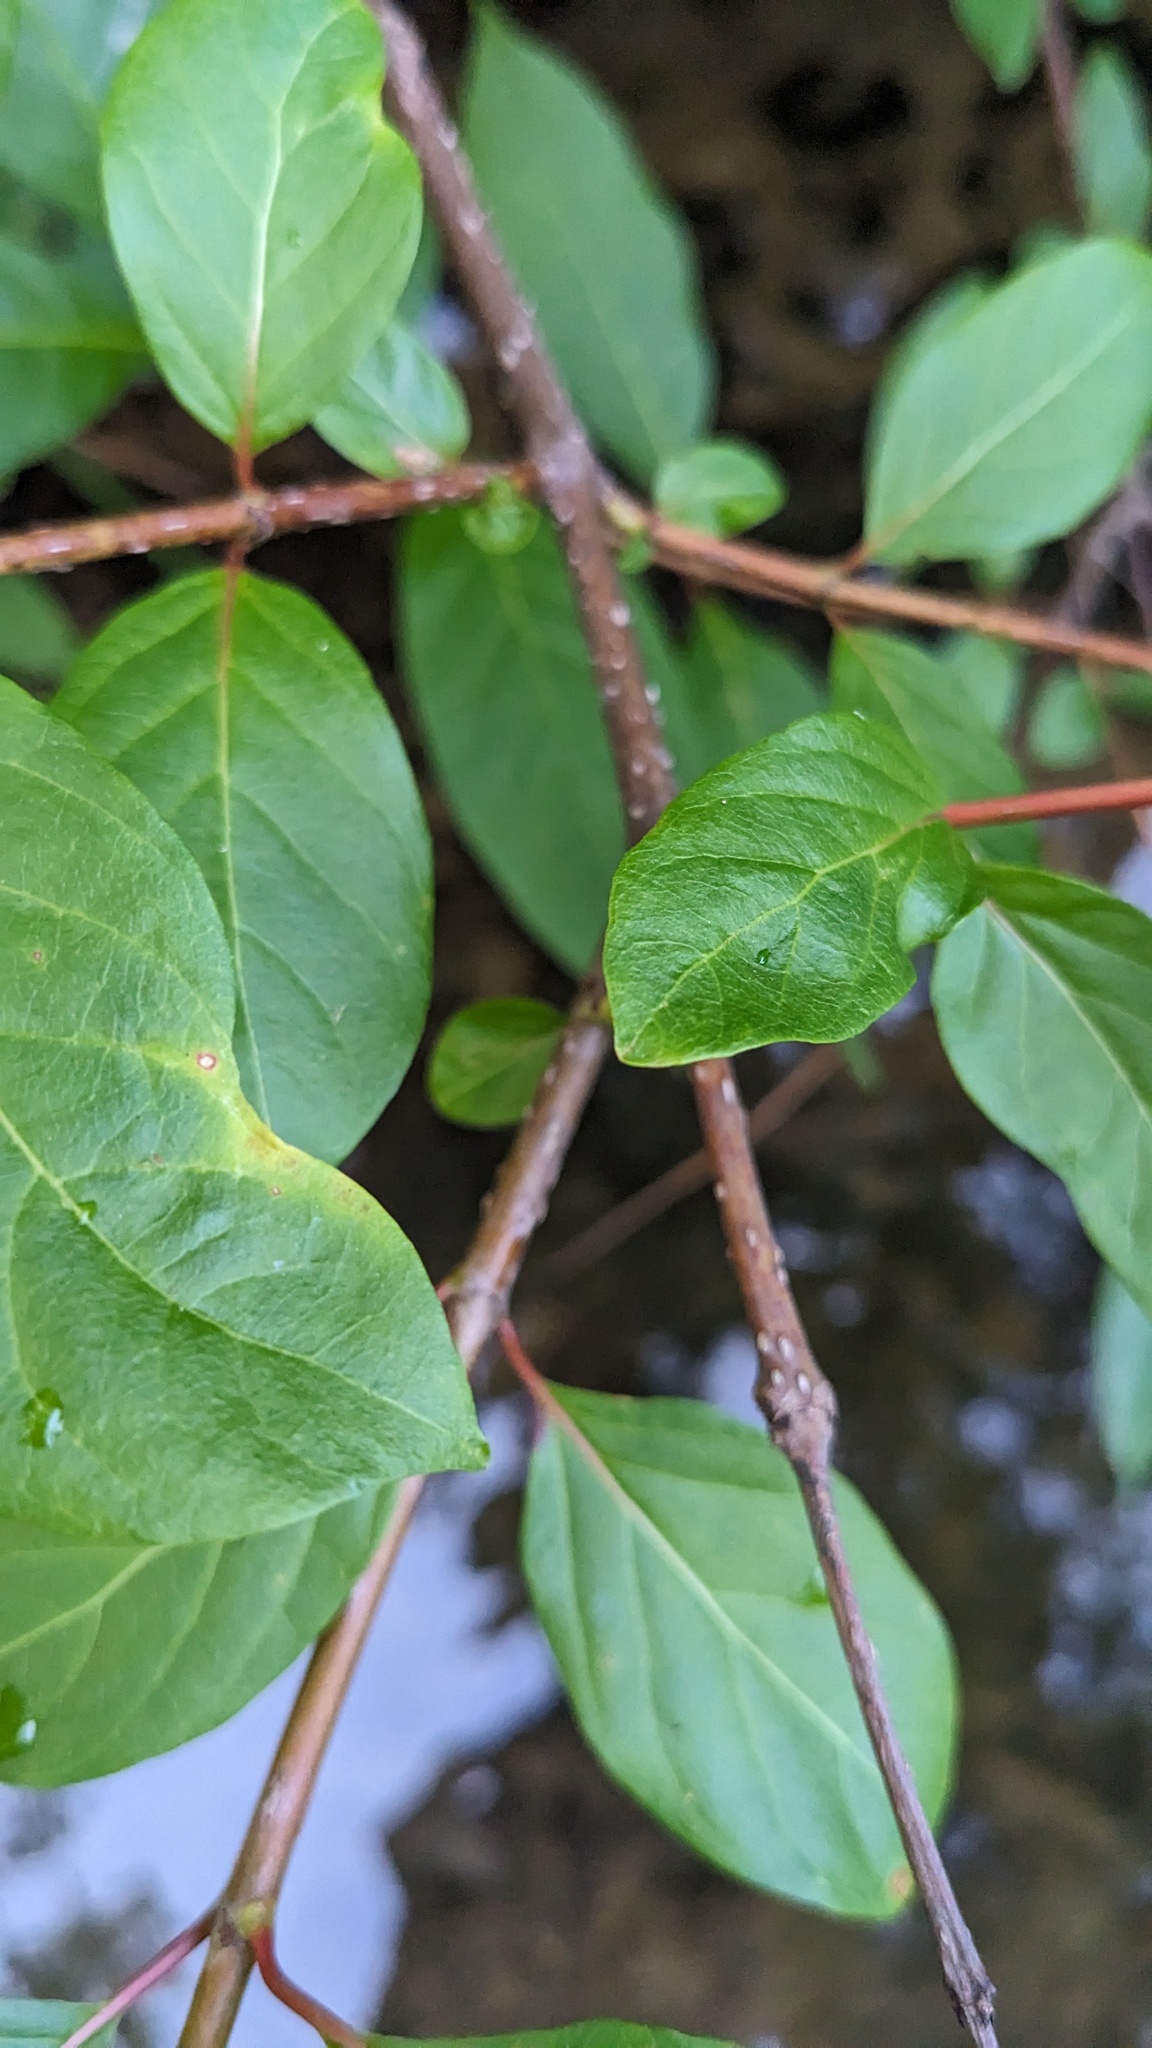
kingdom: Plantae
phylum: Tracheophyta
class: Magnoliopsida
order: Gentianales
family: Rubiaceae
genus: Cephalanthus
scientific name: Cephalanthus occidentalis
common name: Button-willow
